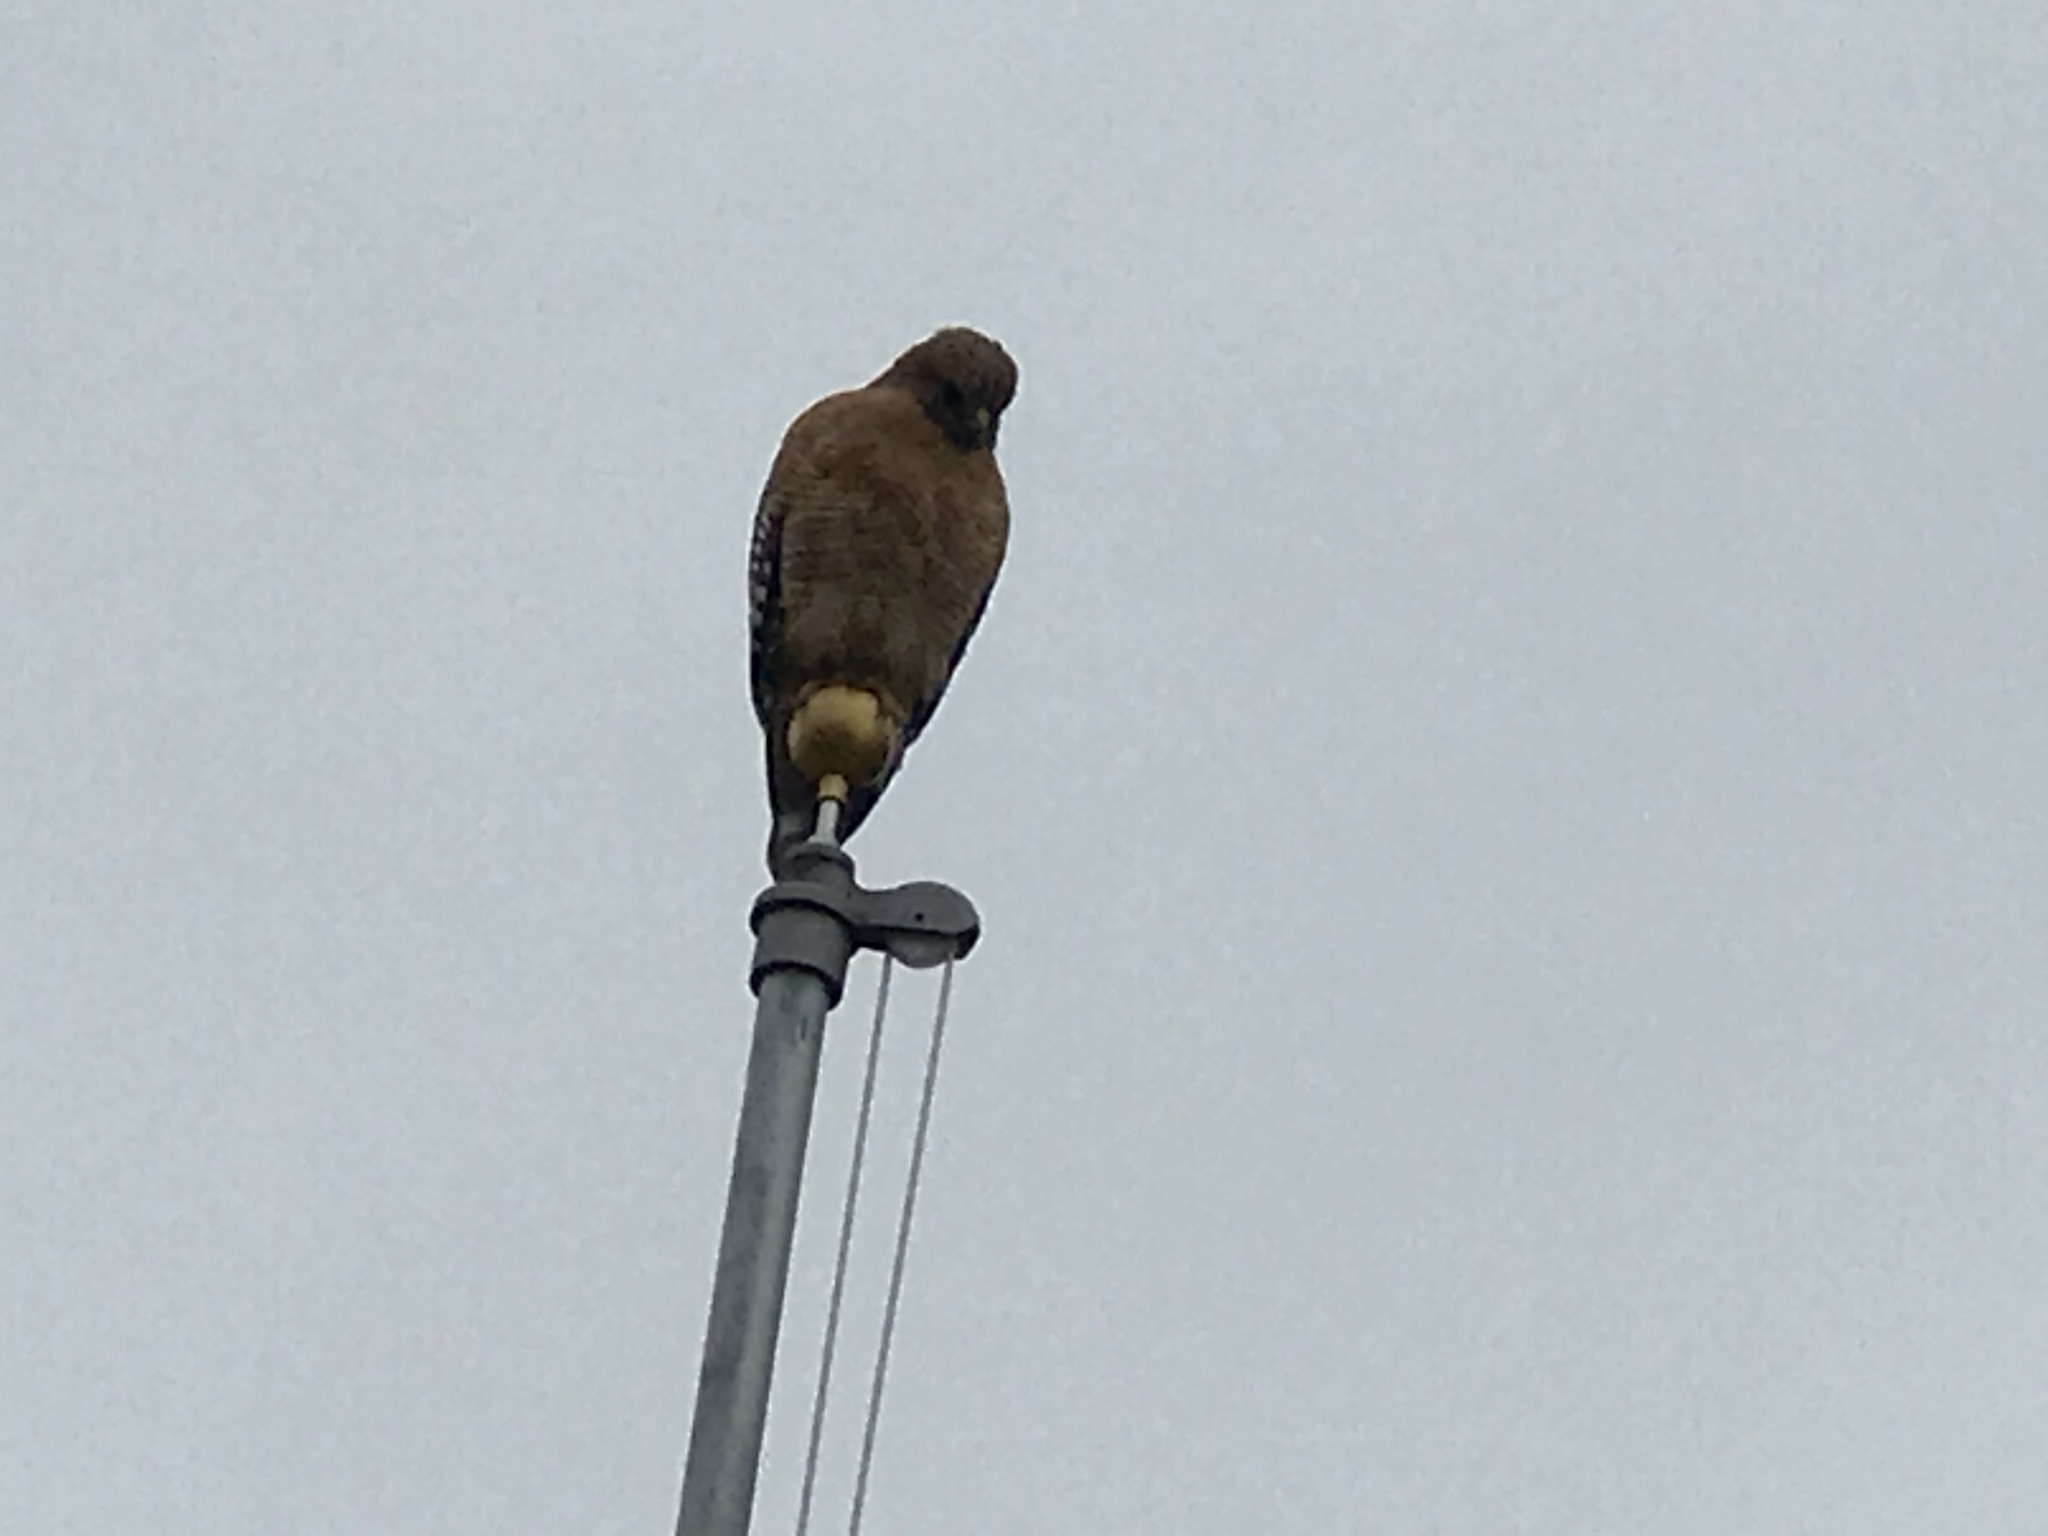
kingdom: Animalia
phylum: Chordata
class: Aves
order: Accipitriformes
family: Accipitridae
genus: Buteo
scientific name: Buteo lineatus
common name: Red-shouldered hawk
